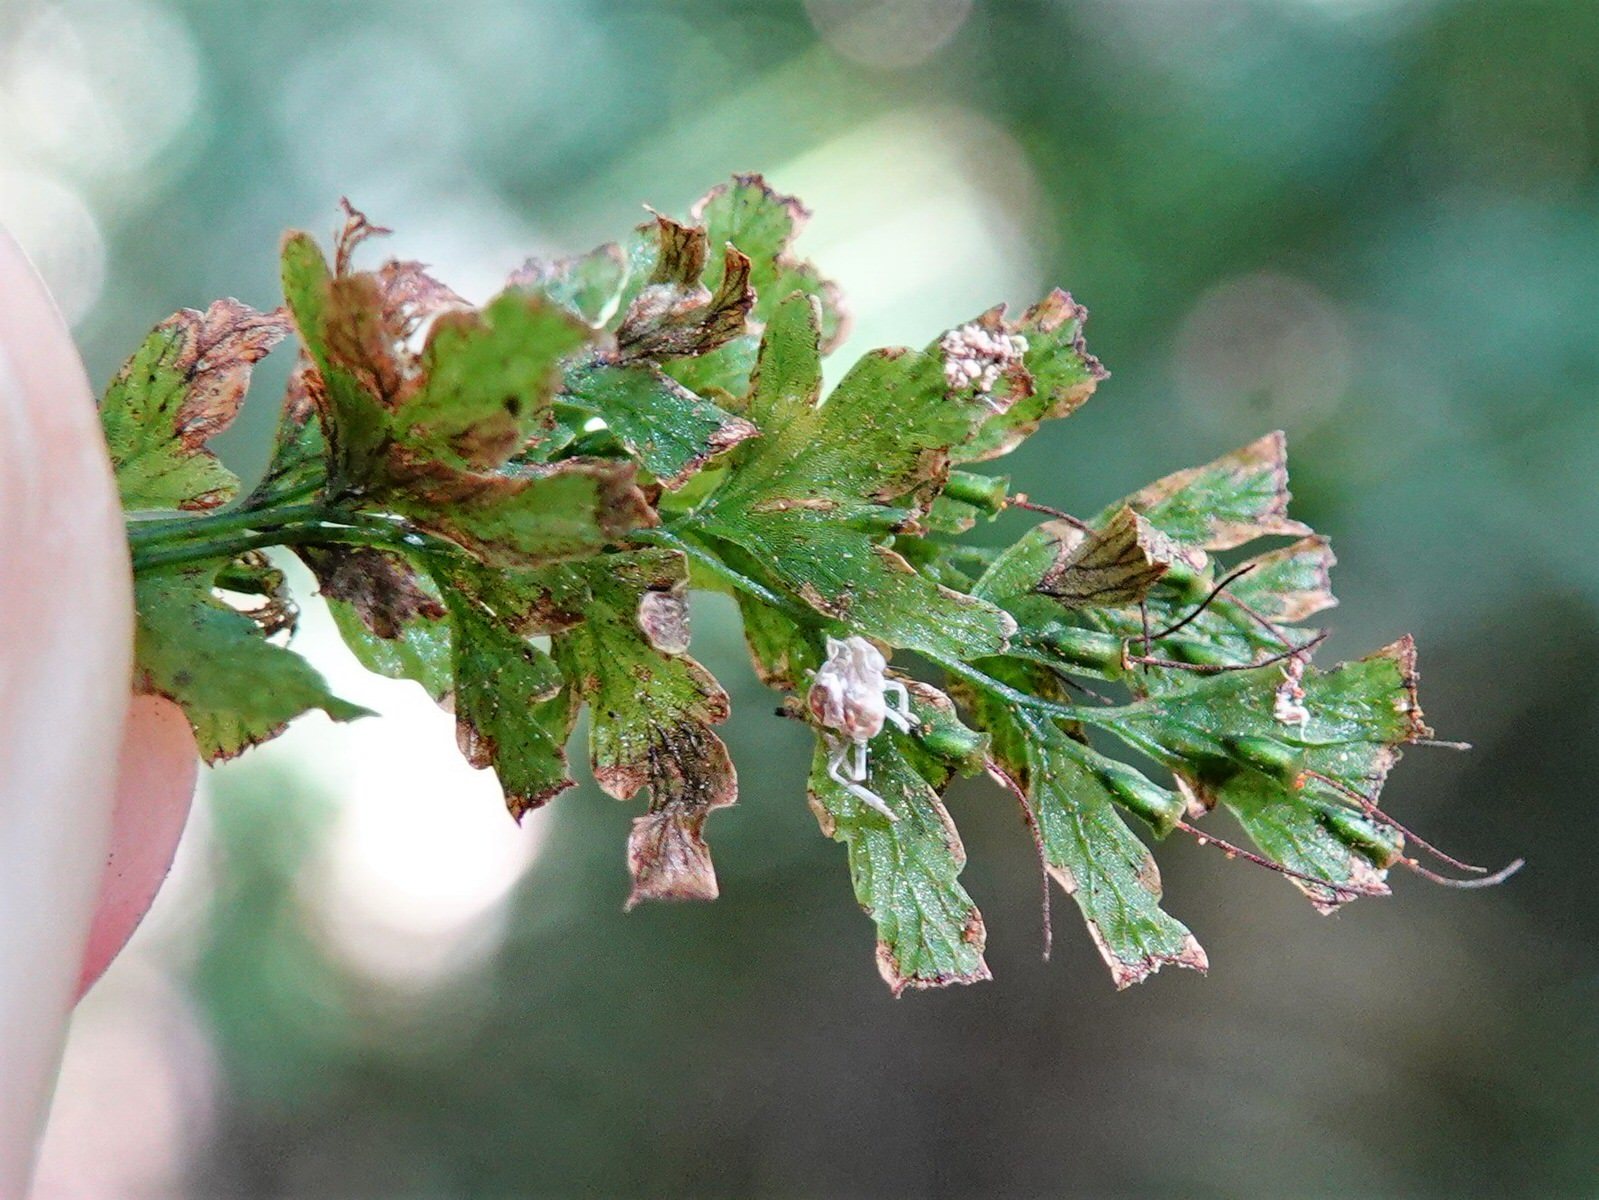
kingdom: Plantae
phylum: Tracheophyta
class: Polypodiopsida
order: Hymenophyllales
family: Hymenophyllaceae
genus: Polyphlebium
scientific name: Polyphlebium venosum
